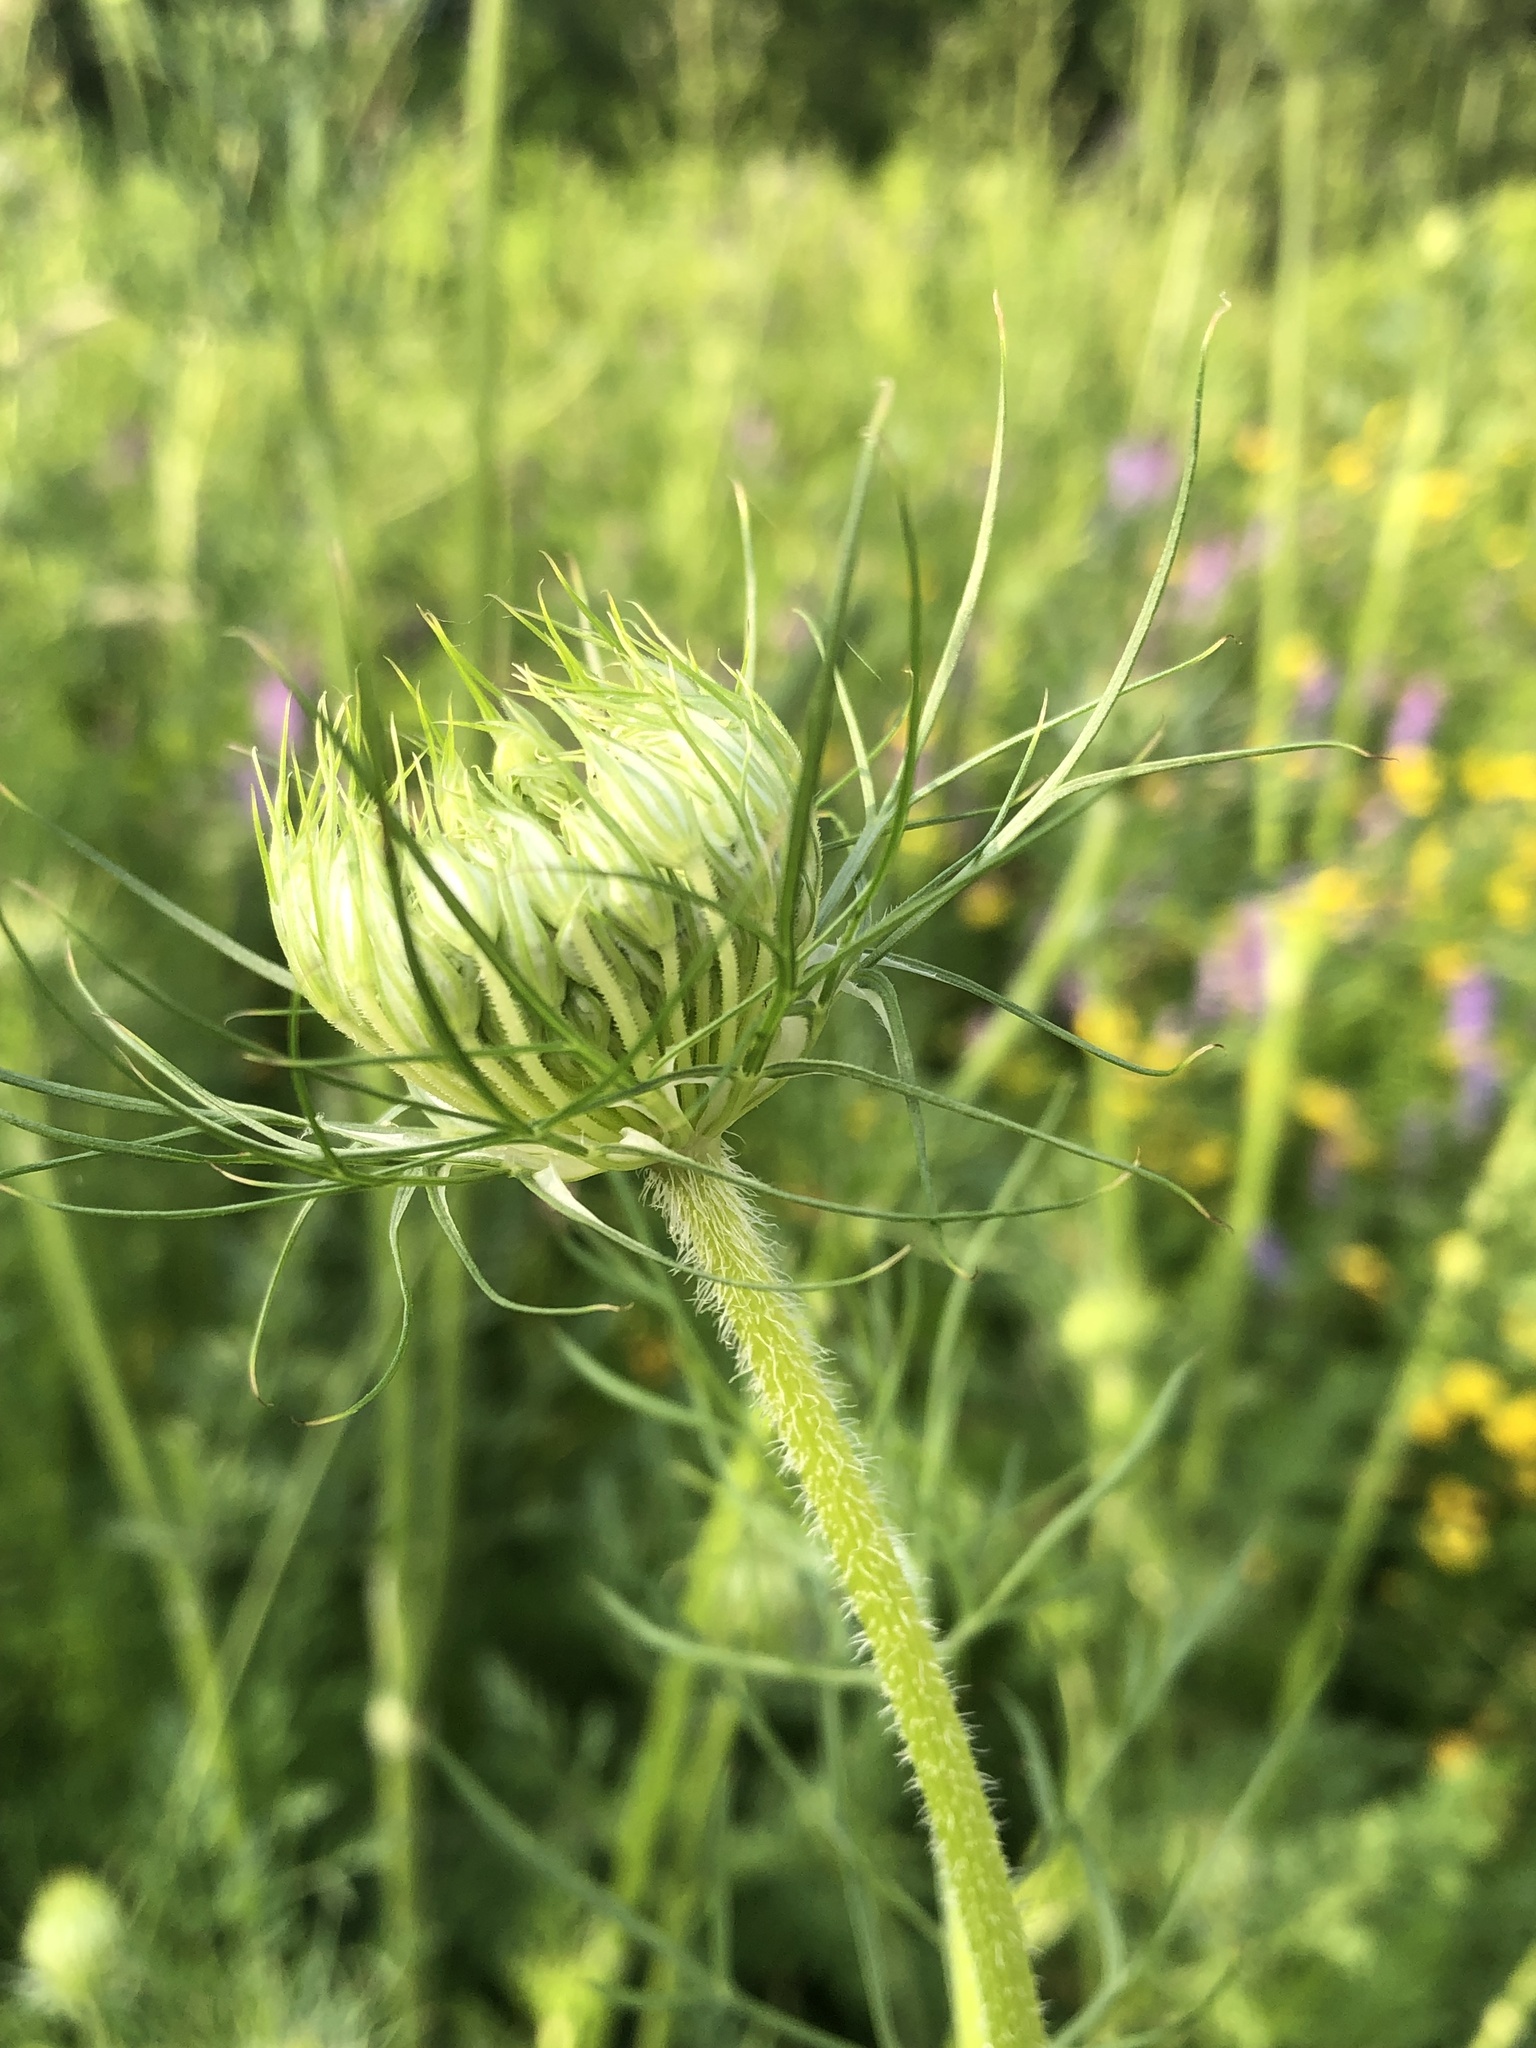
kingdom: Plantae
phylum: Tracheophyta
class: Magnoliopsida
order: Apiales
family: Apiaceae
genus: Daucus
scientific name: Daucus carota
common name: Wild carrot
